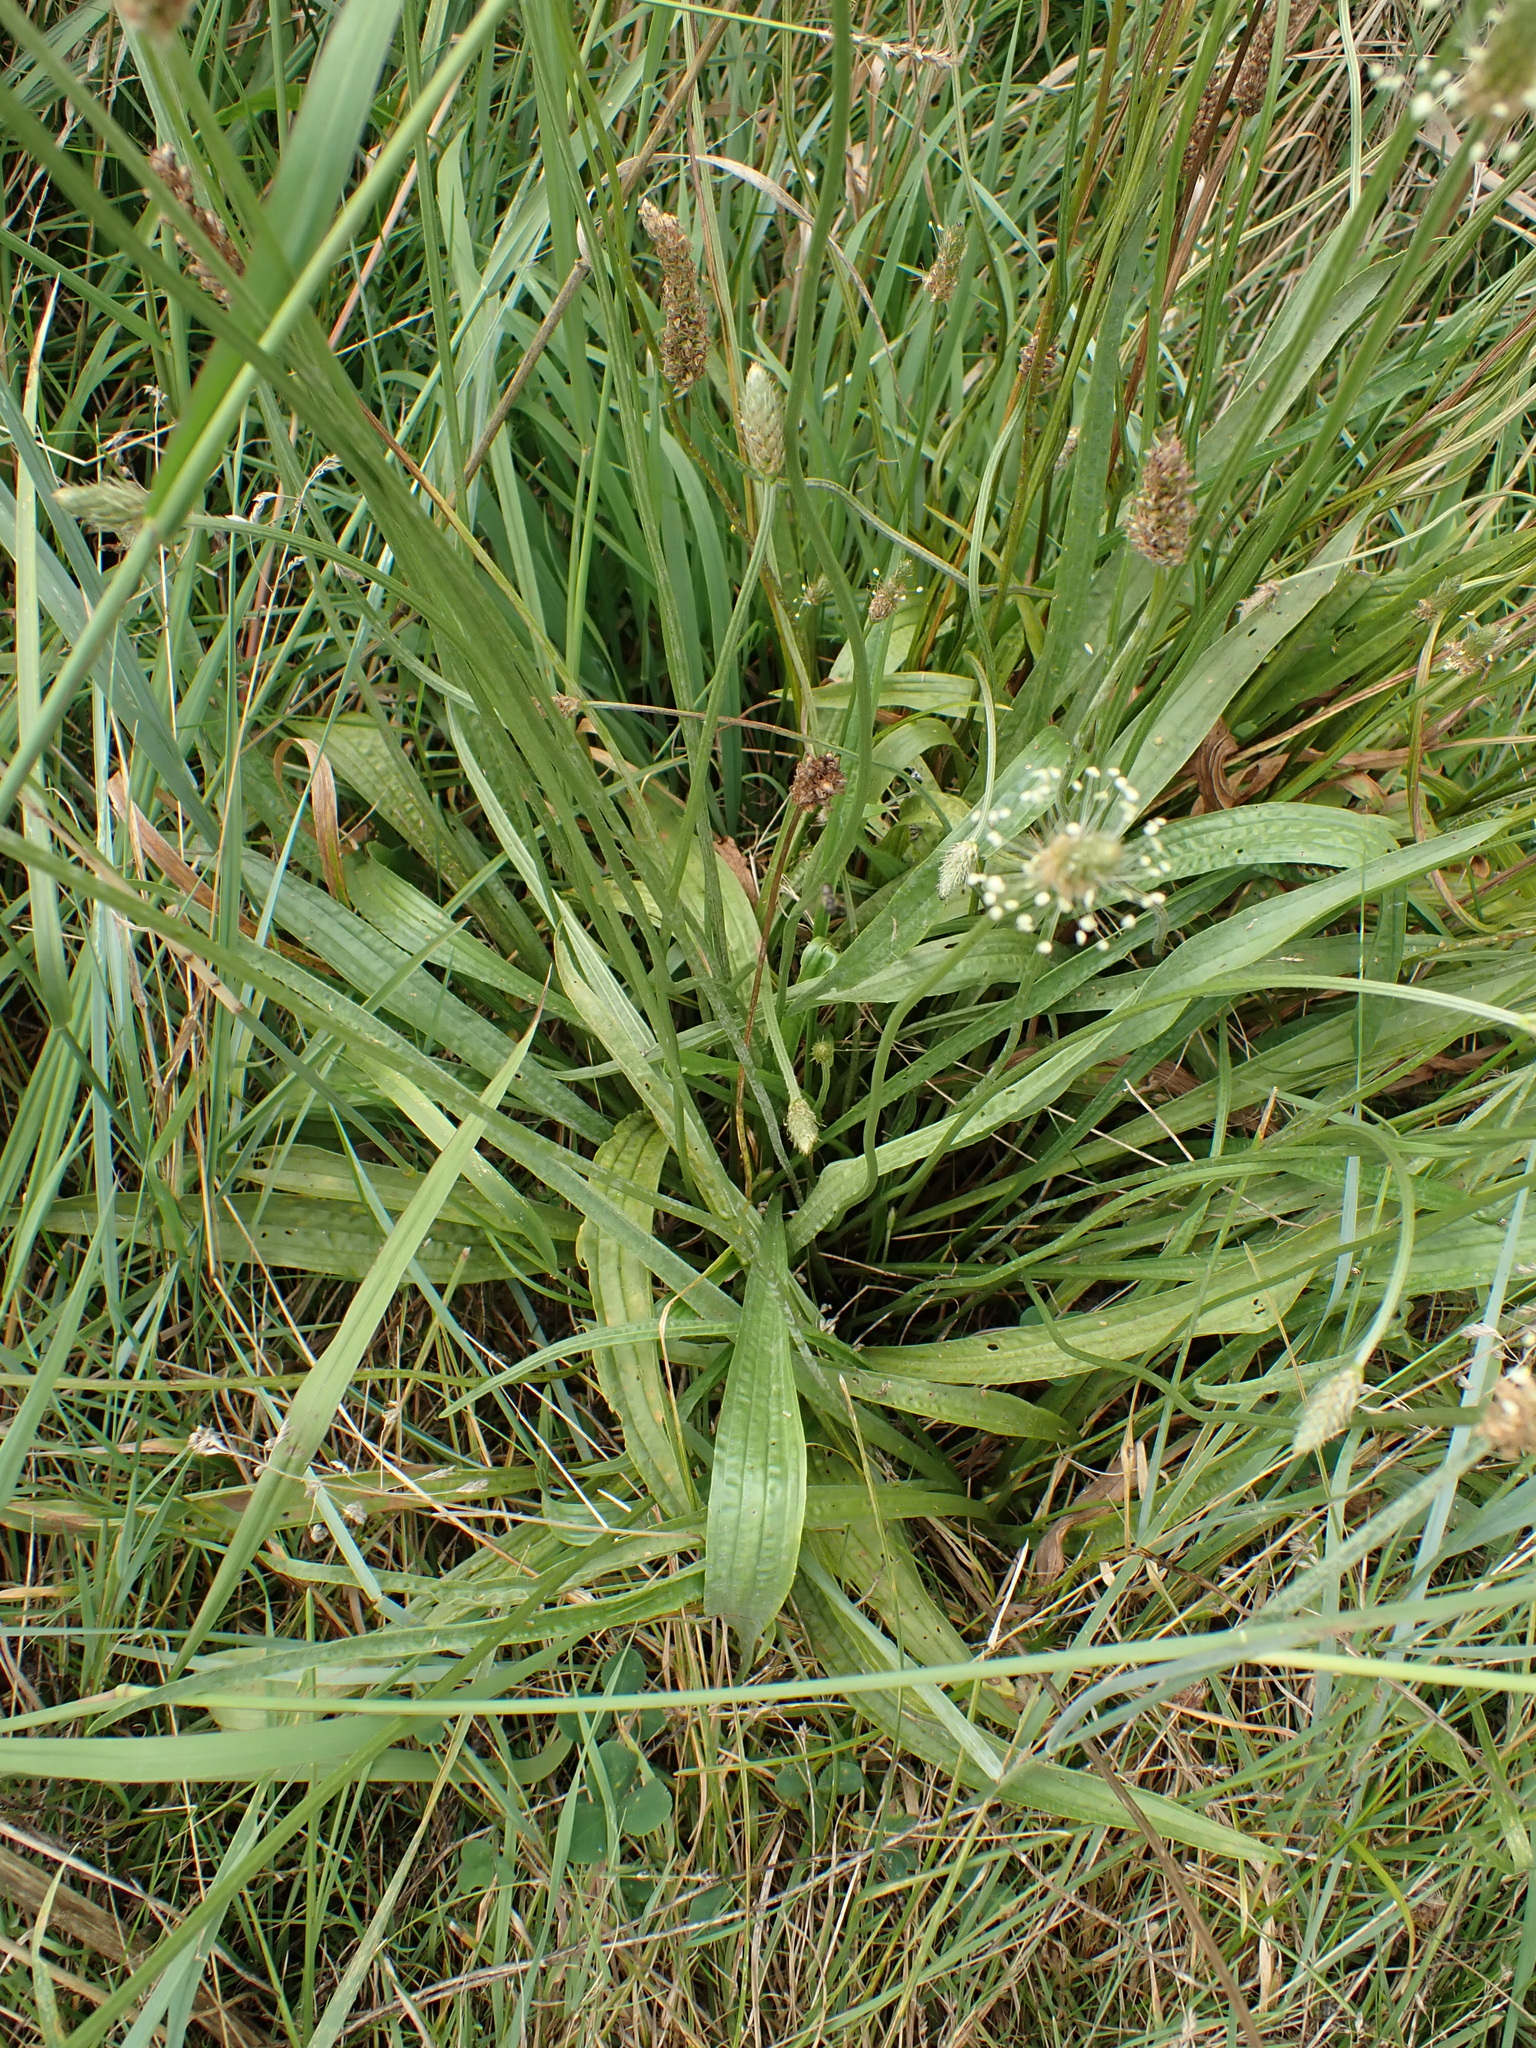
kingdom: Plantae
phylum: Tracheophyta
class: Magnoliopsida
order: Lamiales
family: Plantaginaceae
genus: Plantago
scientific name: Plantago lanceolata
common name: Ribwort plantain
